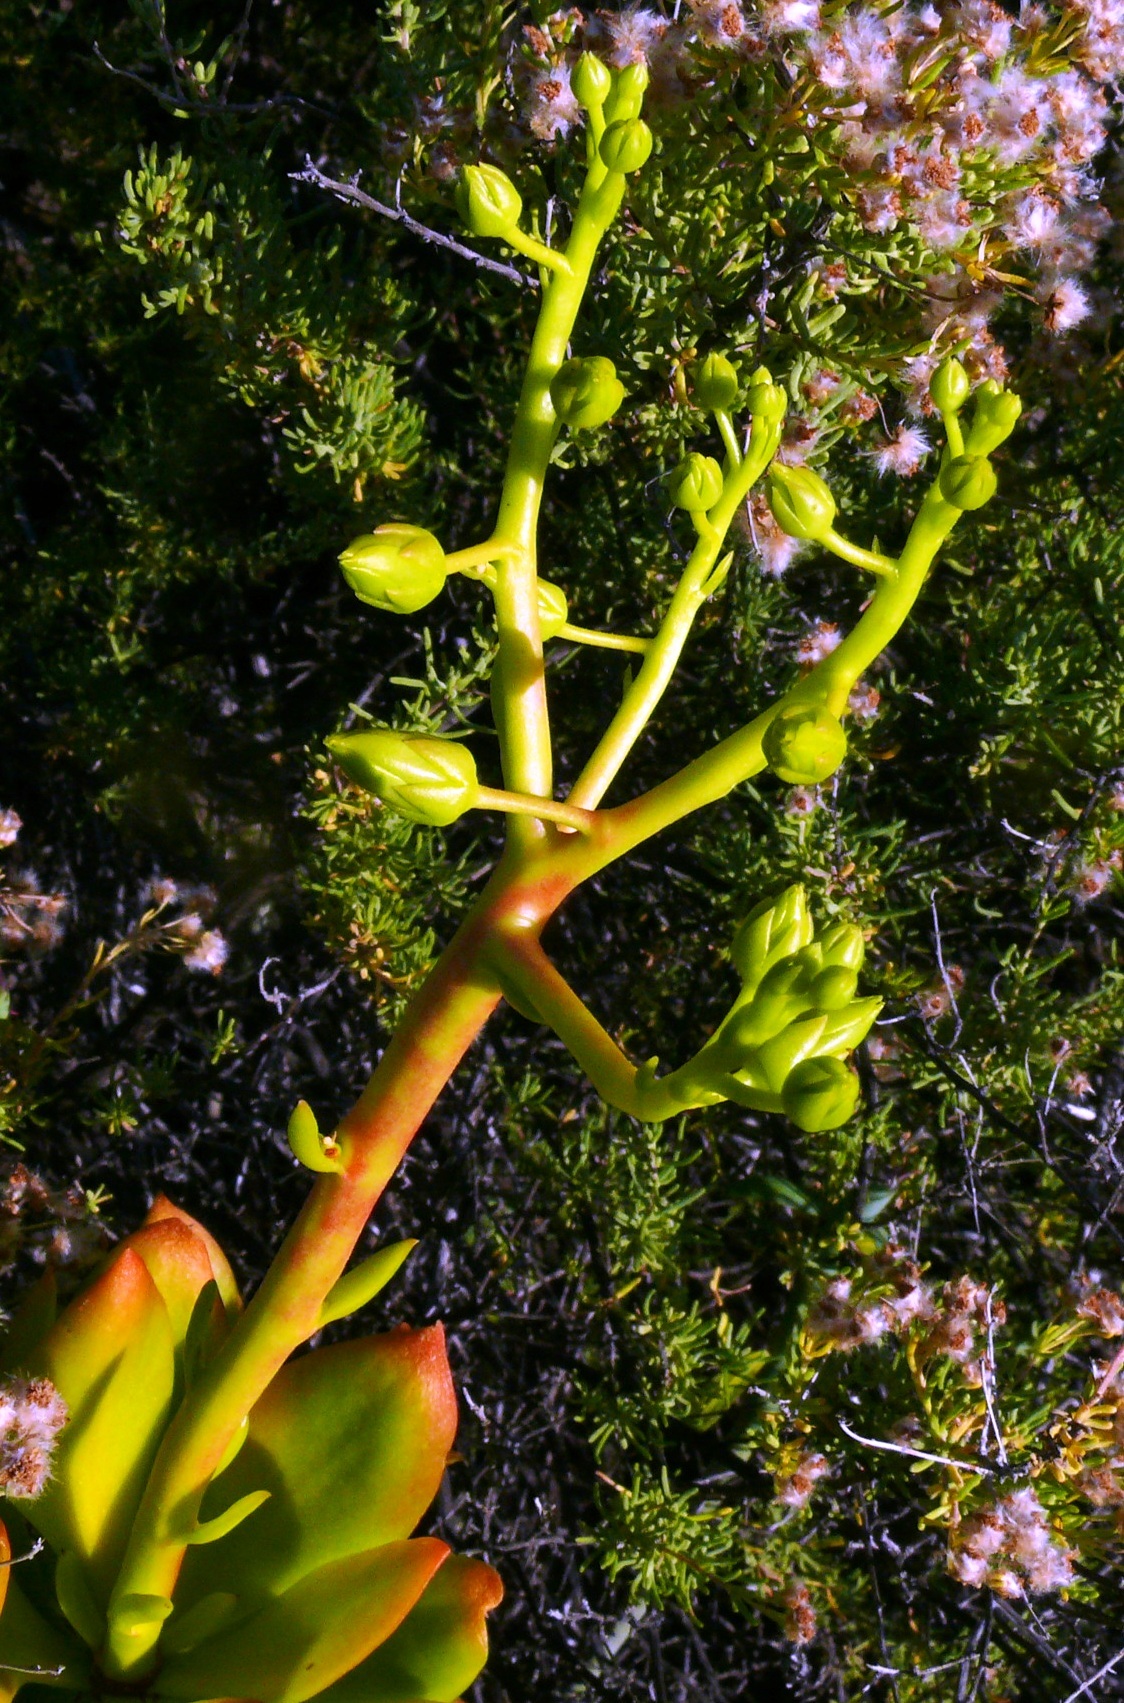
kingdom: Plantae
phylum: Tracheophyta
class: Magnoliopsida
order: Saxifragales
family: Crassulaceae
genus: Tylecodon
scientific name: Tylecodon paniculatus
